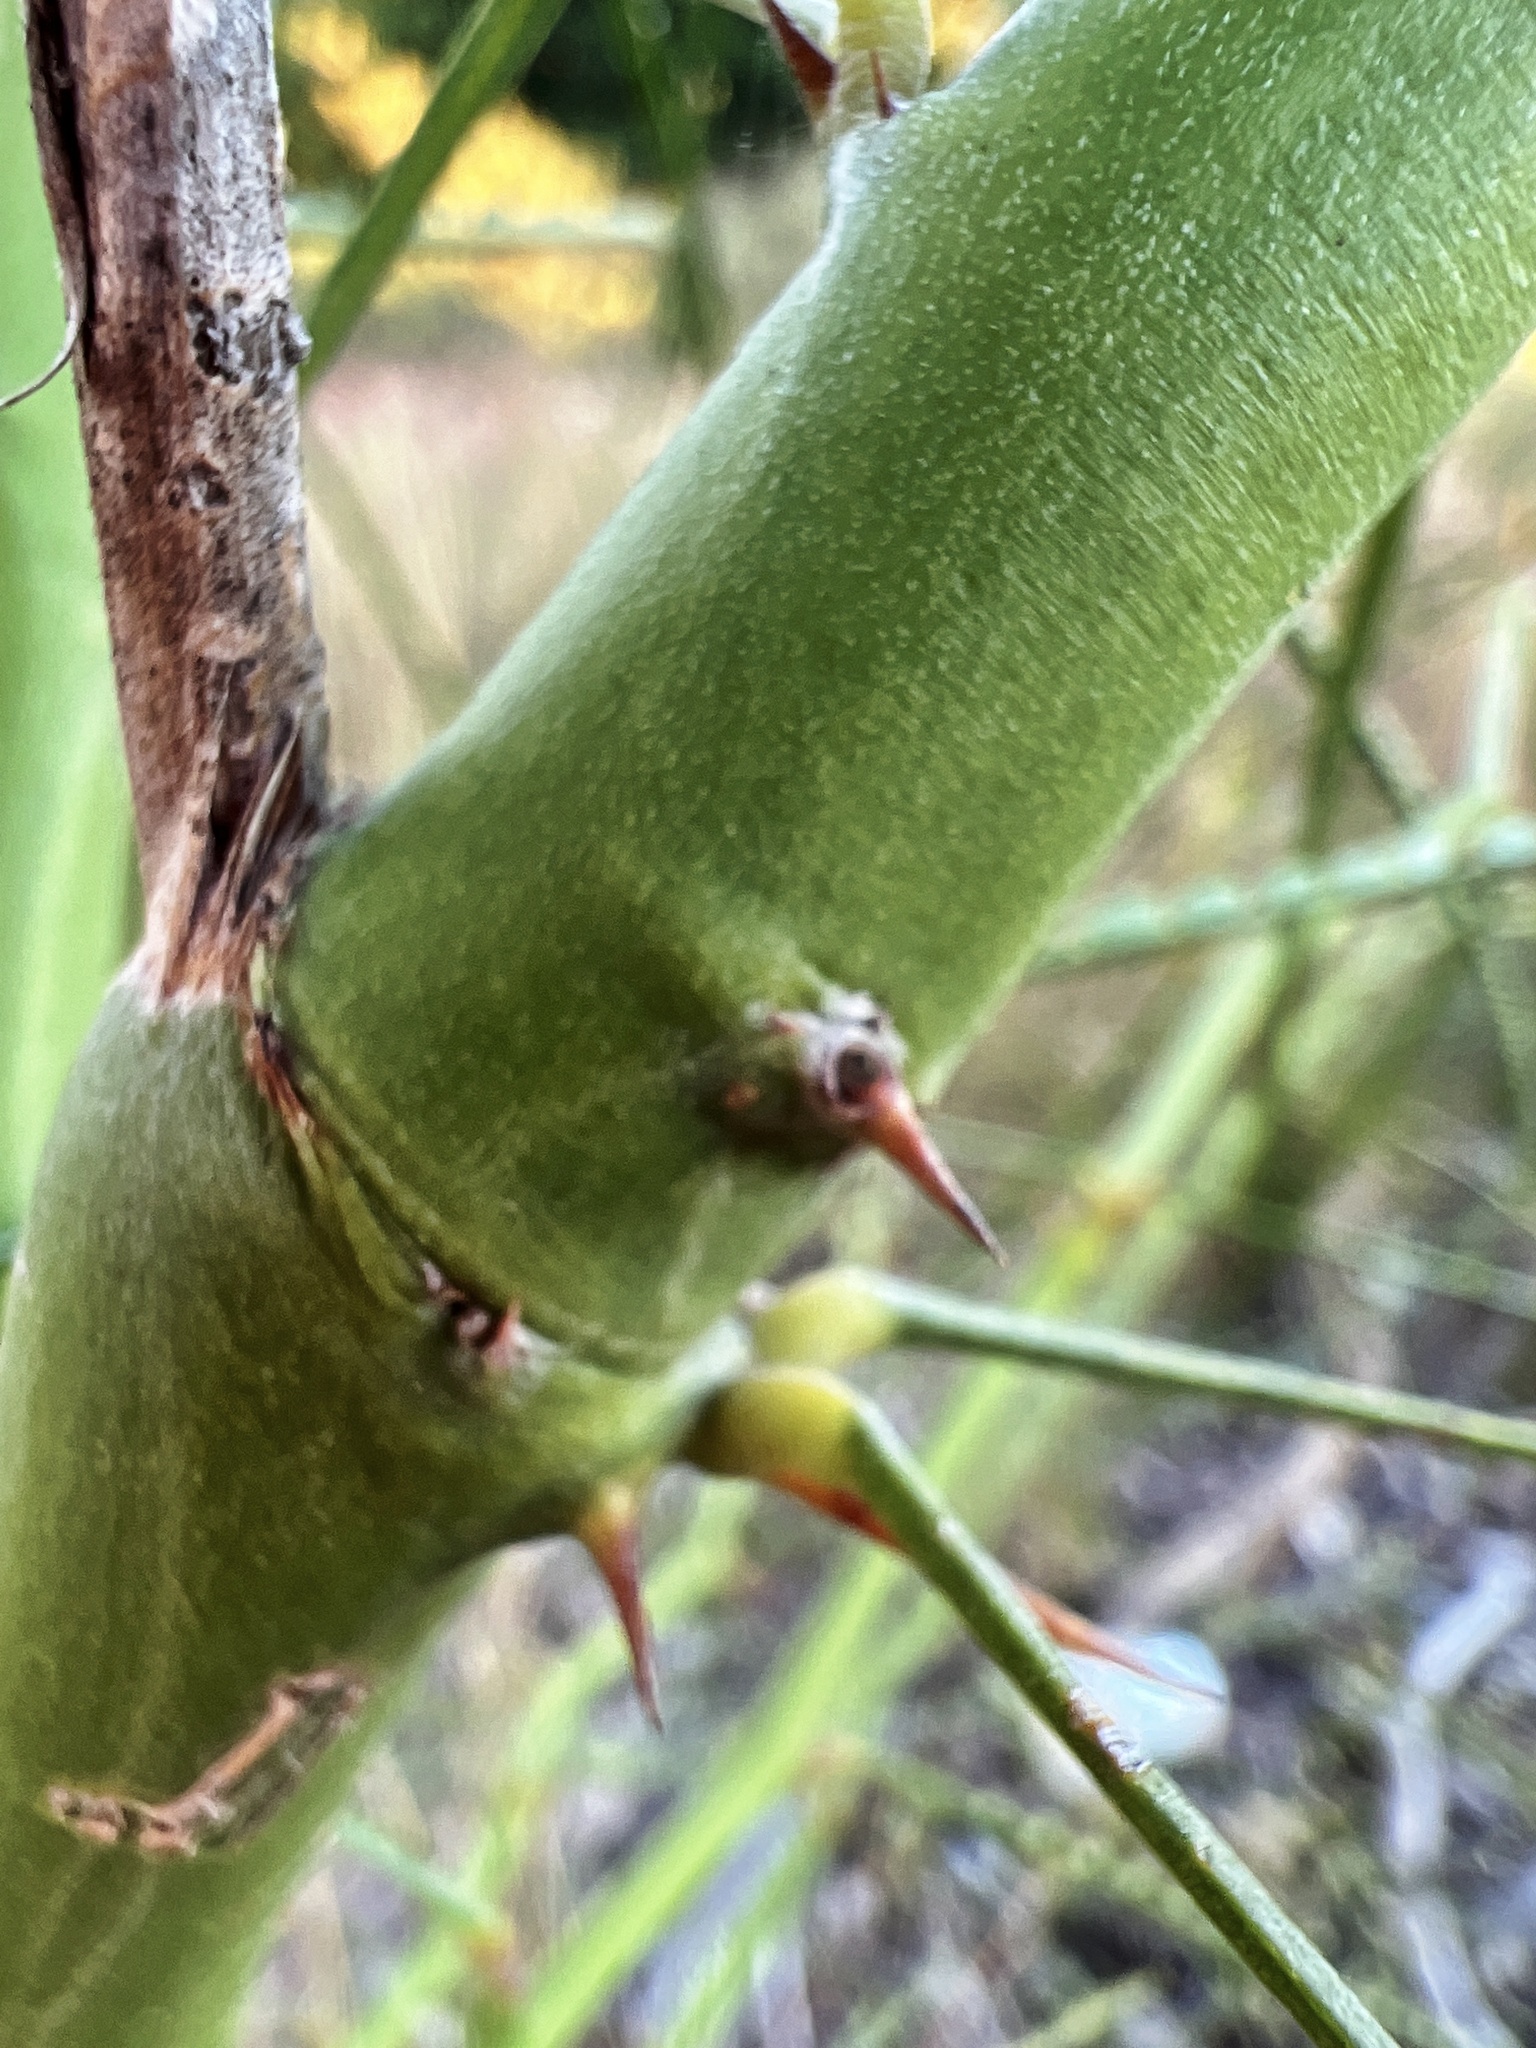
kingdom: Plantae
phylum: Tracheophyta
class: Magnoliopsida
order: Fabales
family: Fabaceae
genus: Parkinsonia
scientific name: Parkinsonia aculeata
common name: Jerusalem thorn
